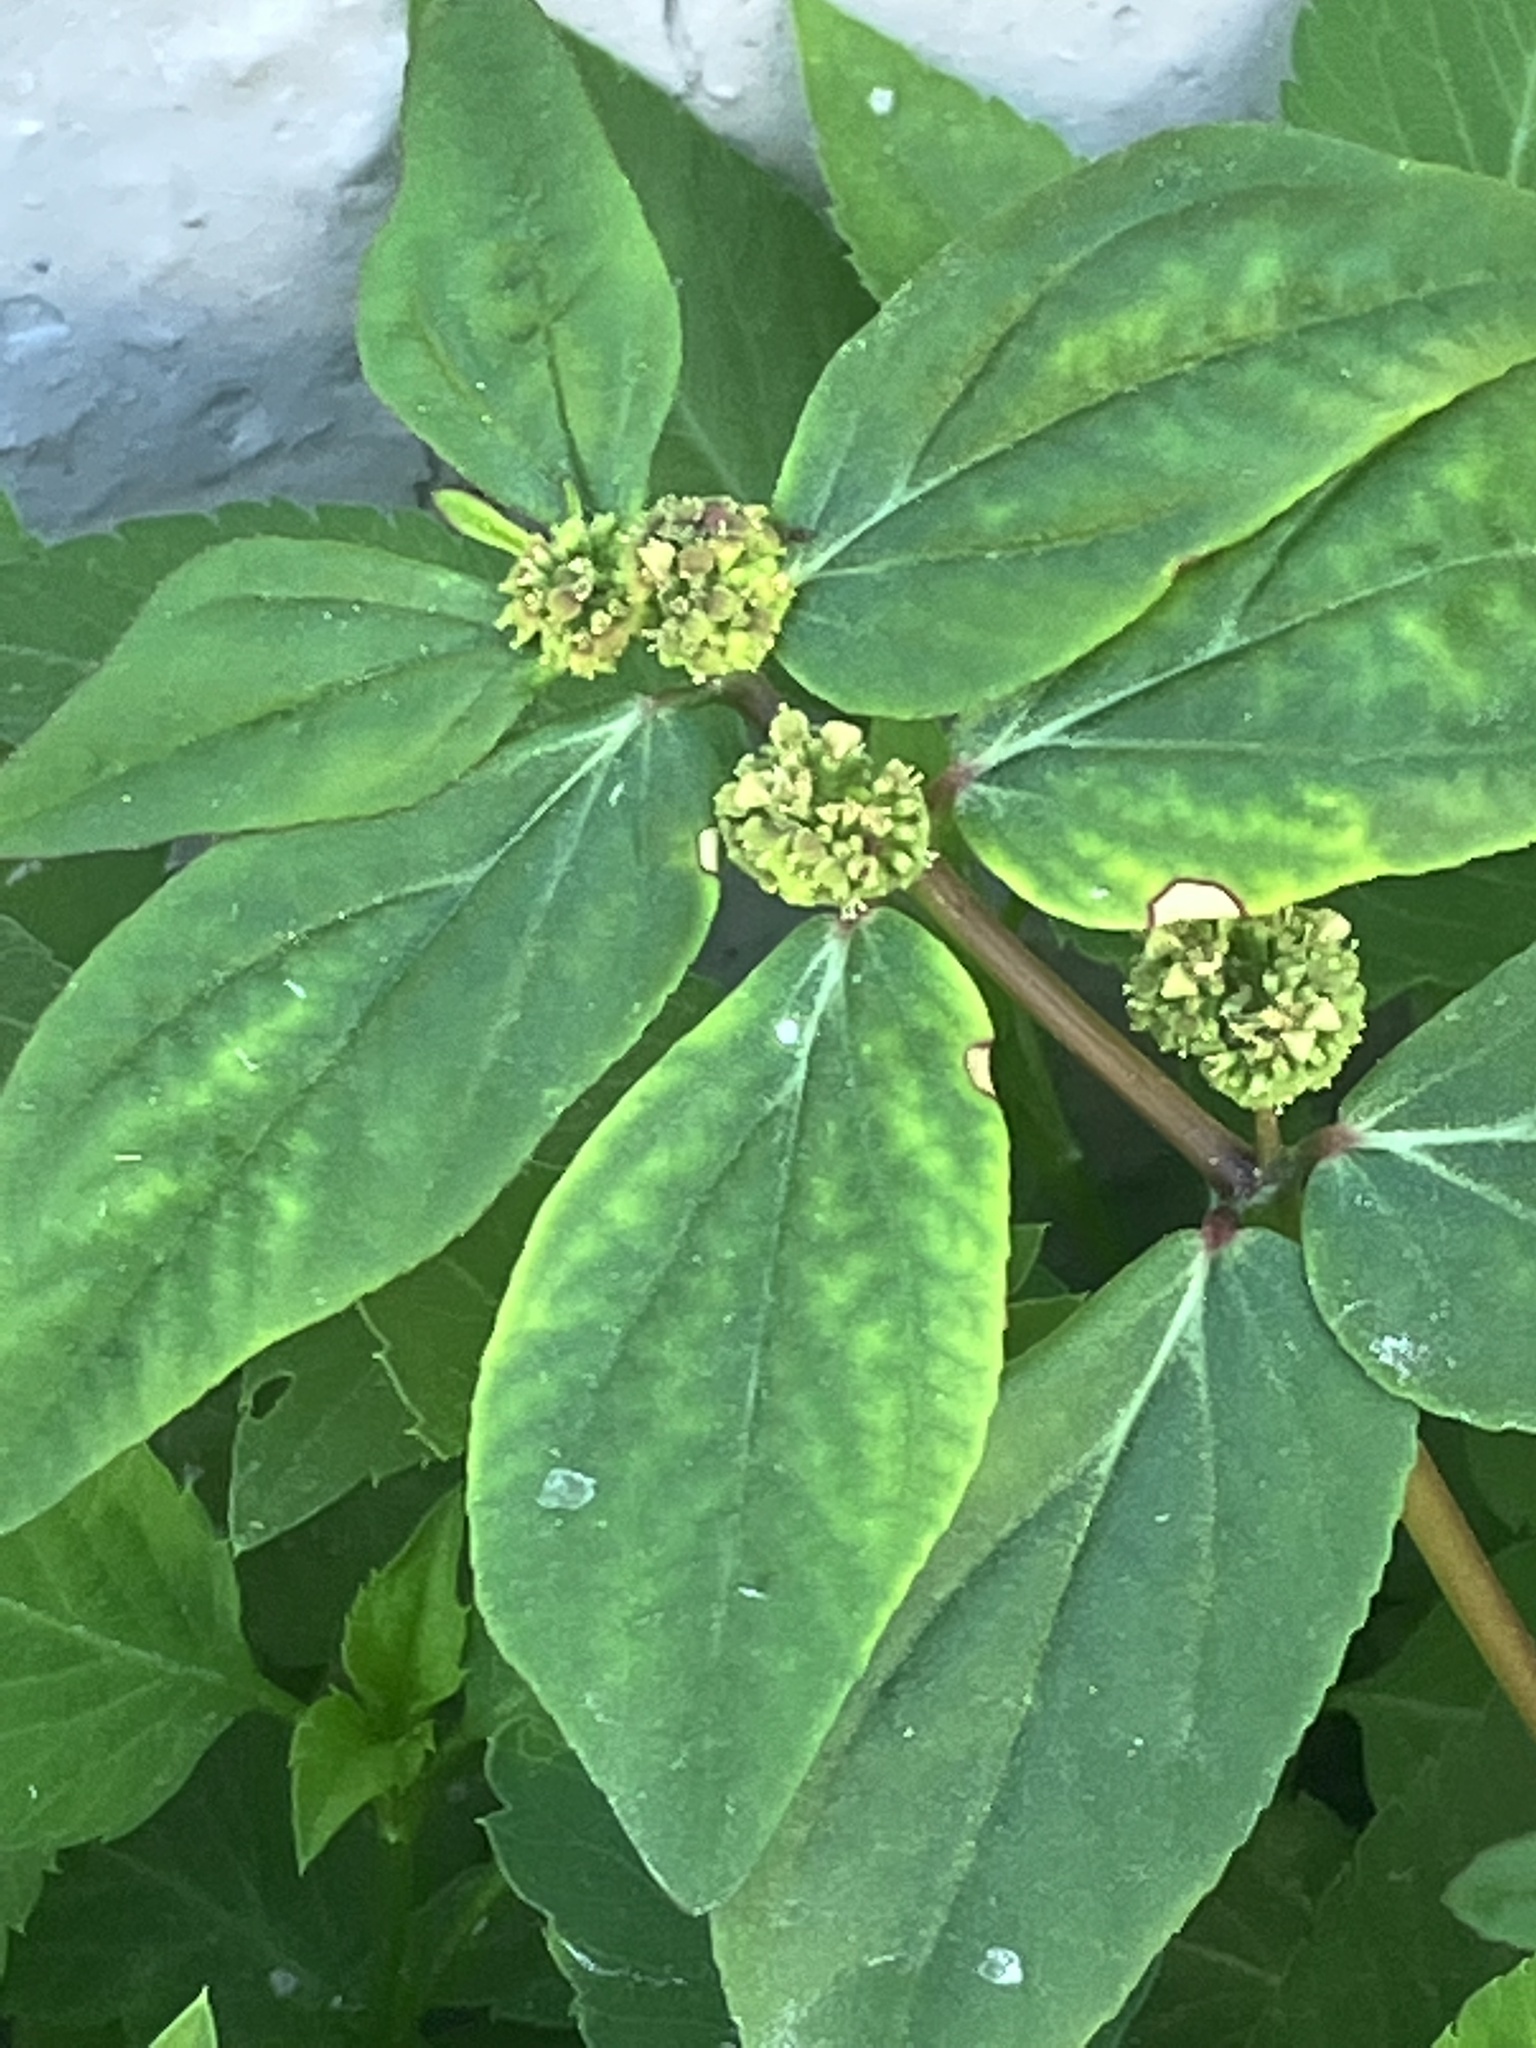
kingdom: Plantae
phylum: Tracheophyta
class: Magnoliopsida
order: Malpighiales
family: Euphorbiaceae
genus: Euphorbia
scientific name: Euphorbia hirta
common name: Pillpod sandmat
